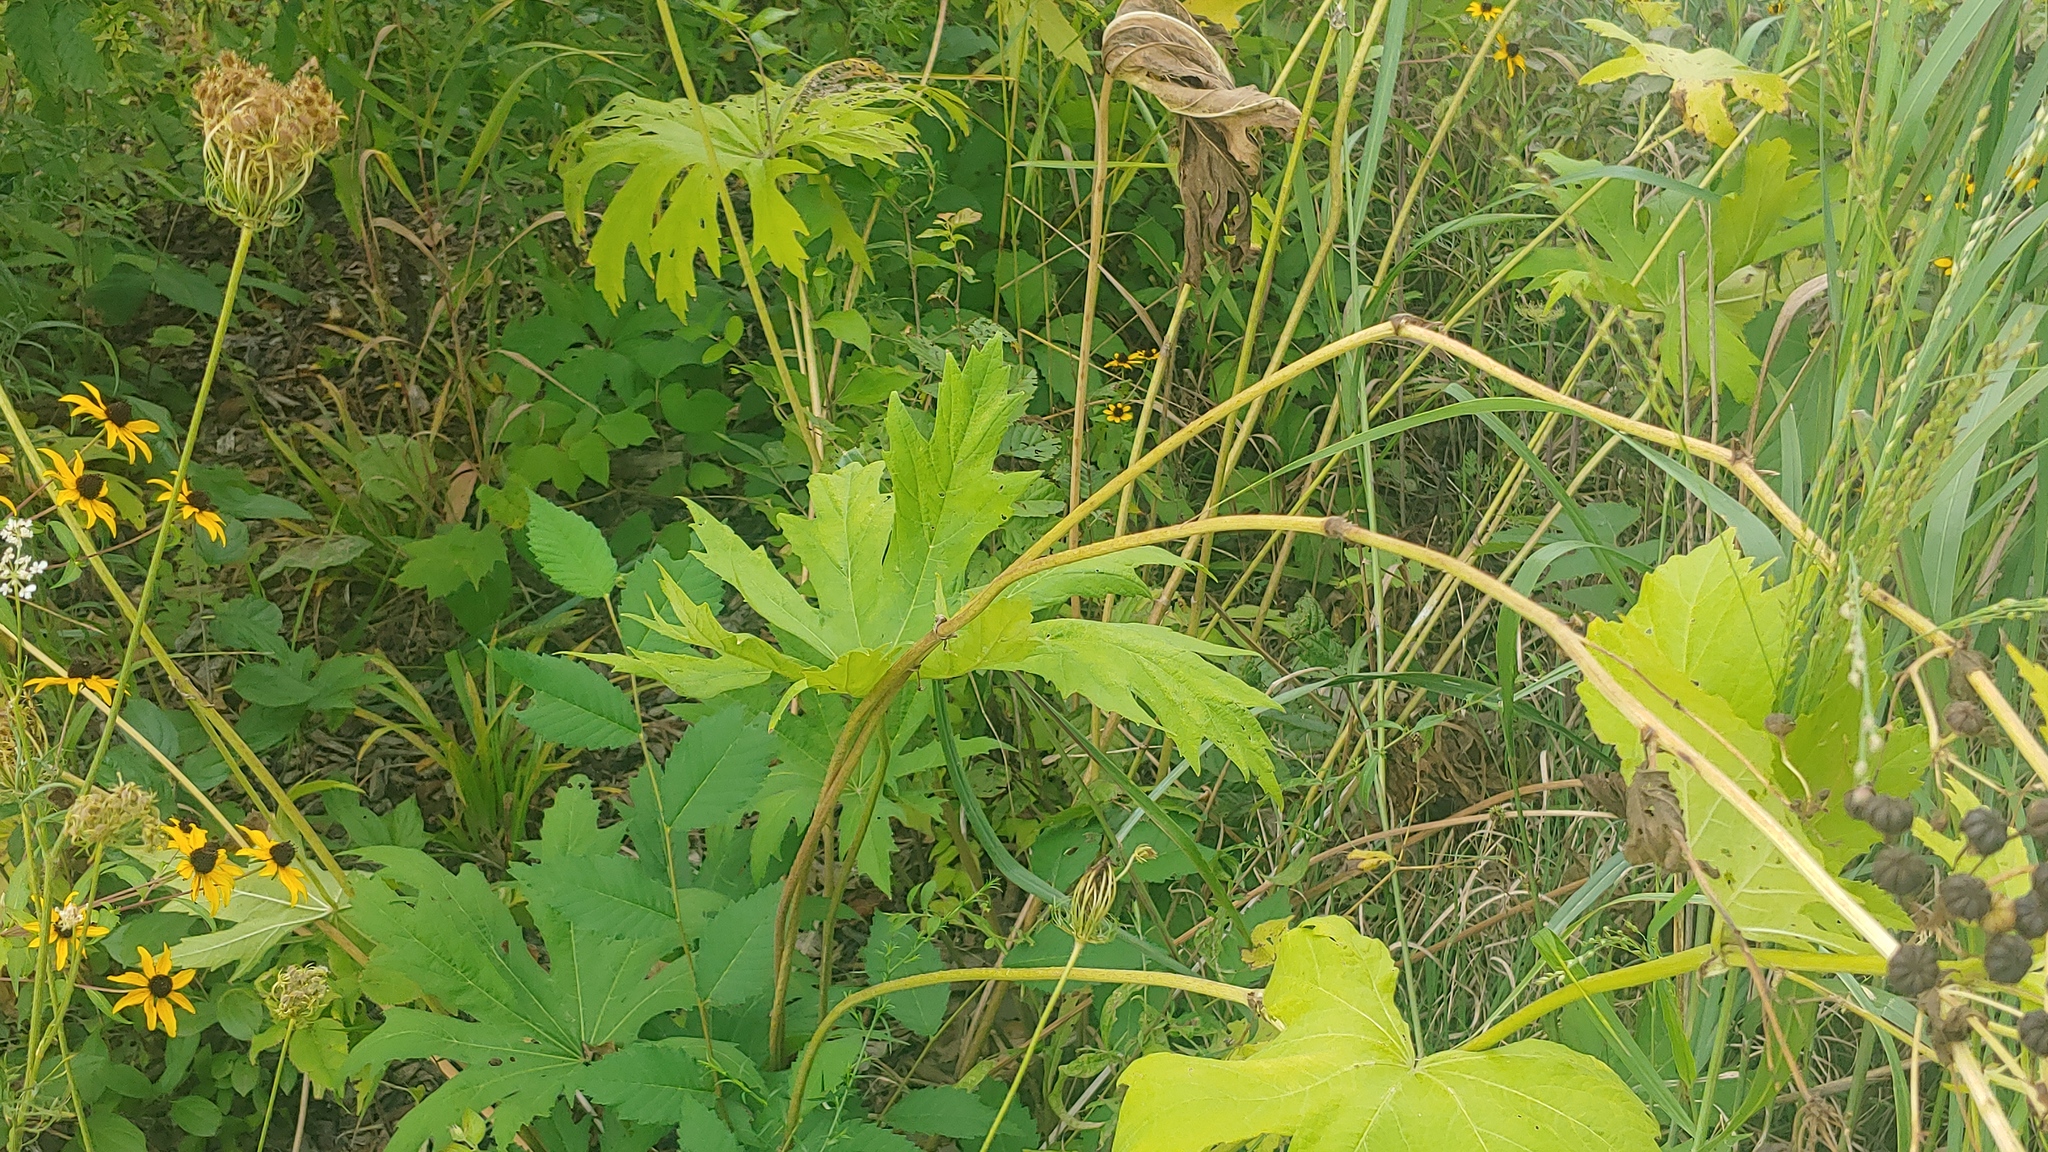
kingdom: Plantae
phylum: Tracheophyta
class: Magnoliopsida
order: Malvales
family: Malvaceae
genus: Napaea
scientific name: Napaea dioica
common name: Glade-mallow
